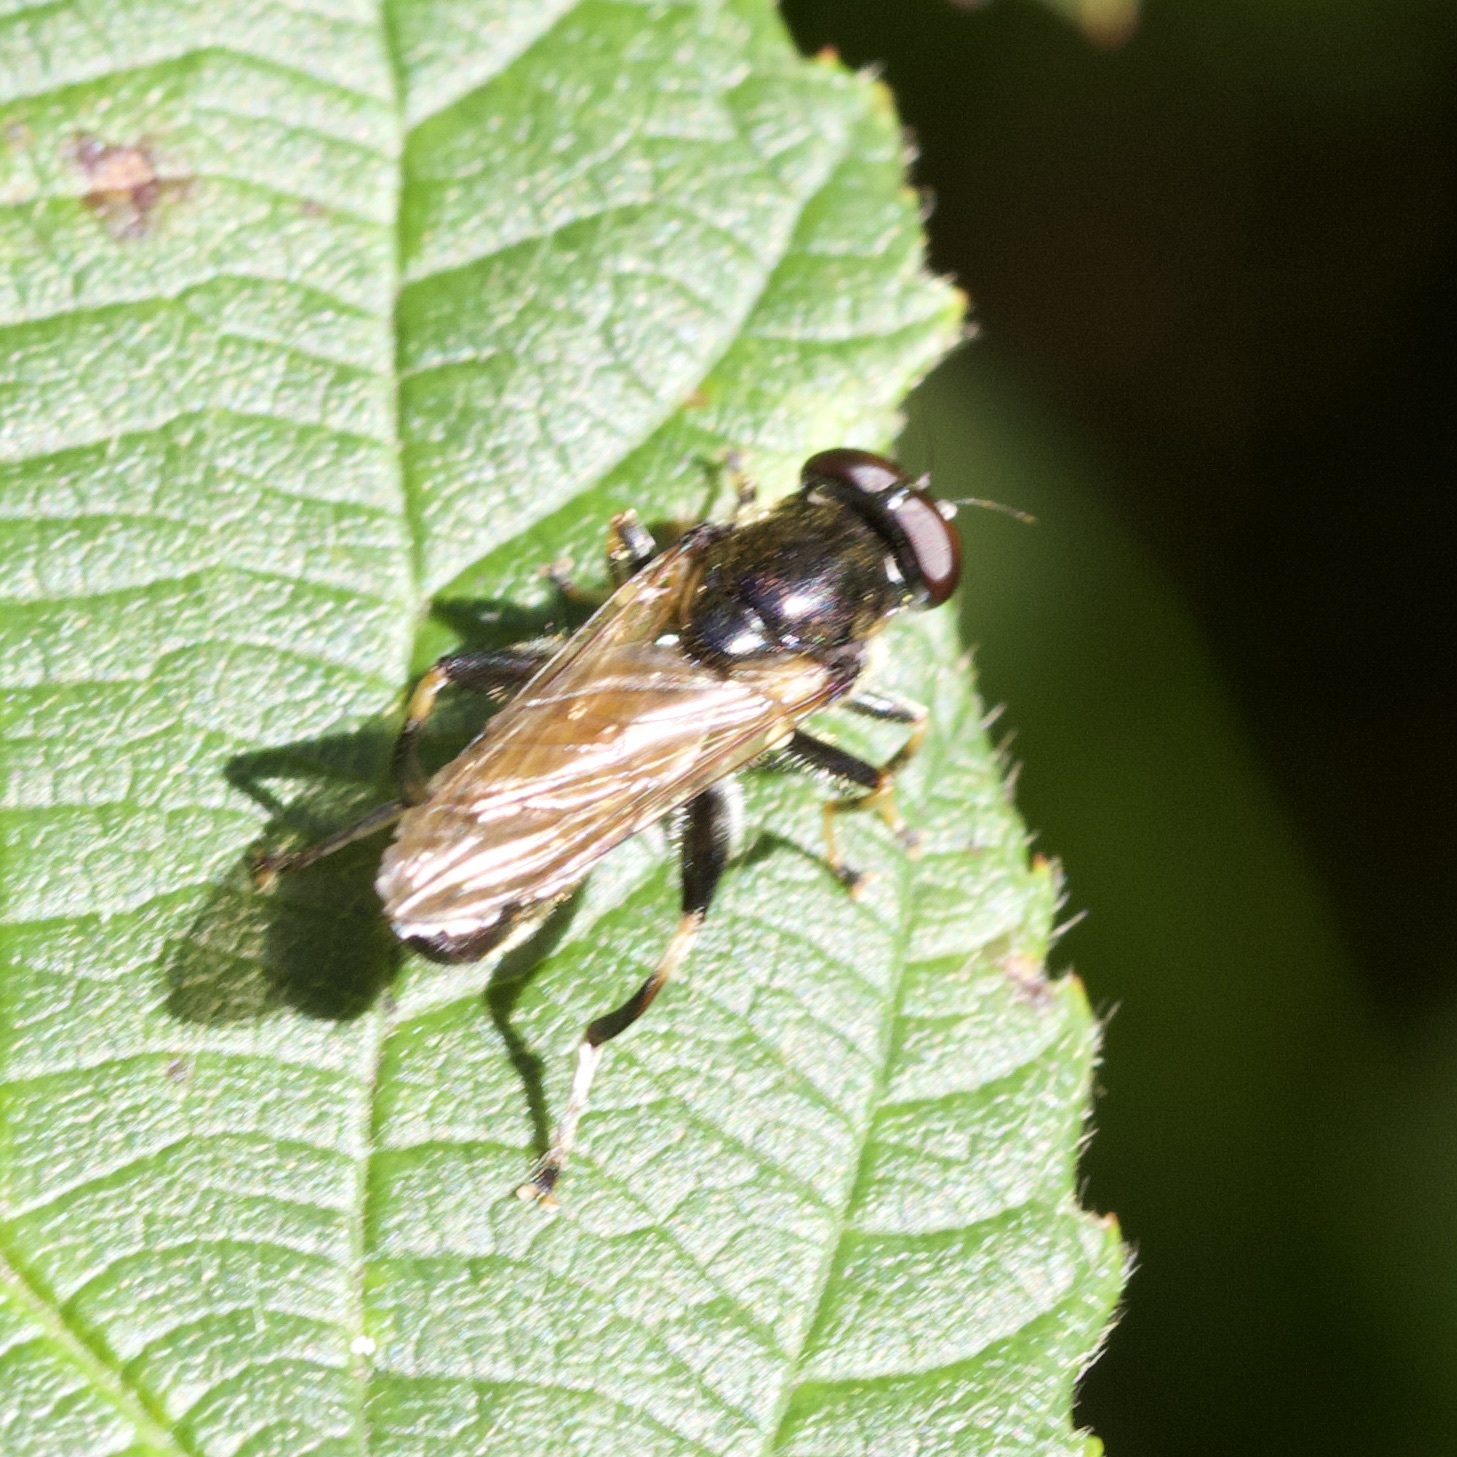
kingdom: Animalia
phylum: Arthropoda
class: Insecta
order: Diptera
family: Syrphidae
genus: Xylota
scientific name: Xylota segnis
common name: Brown-toed forest fly
